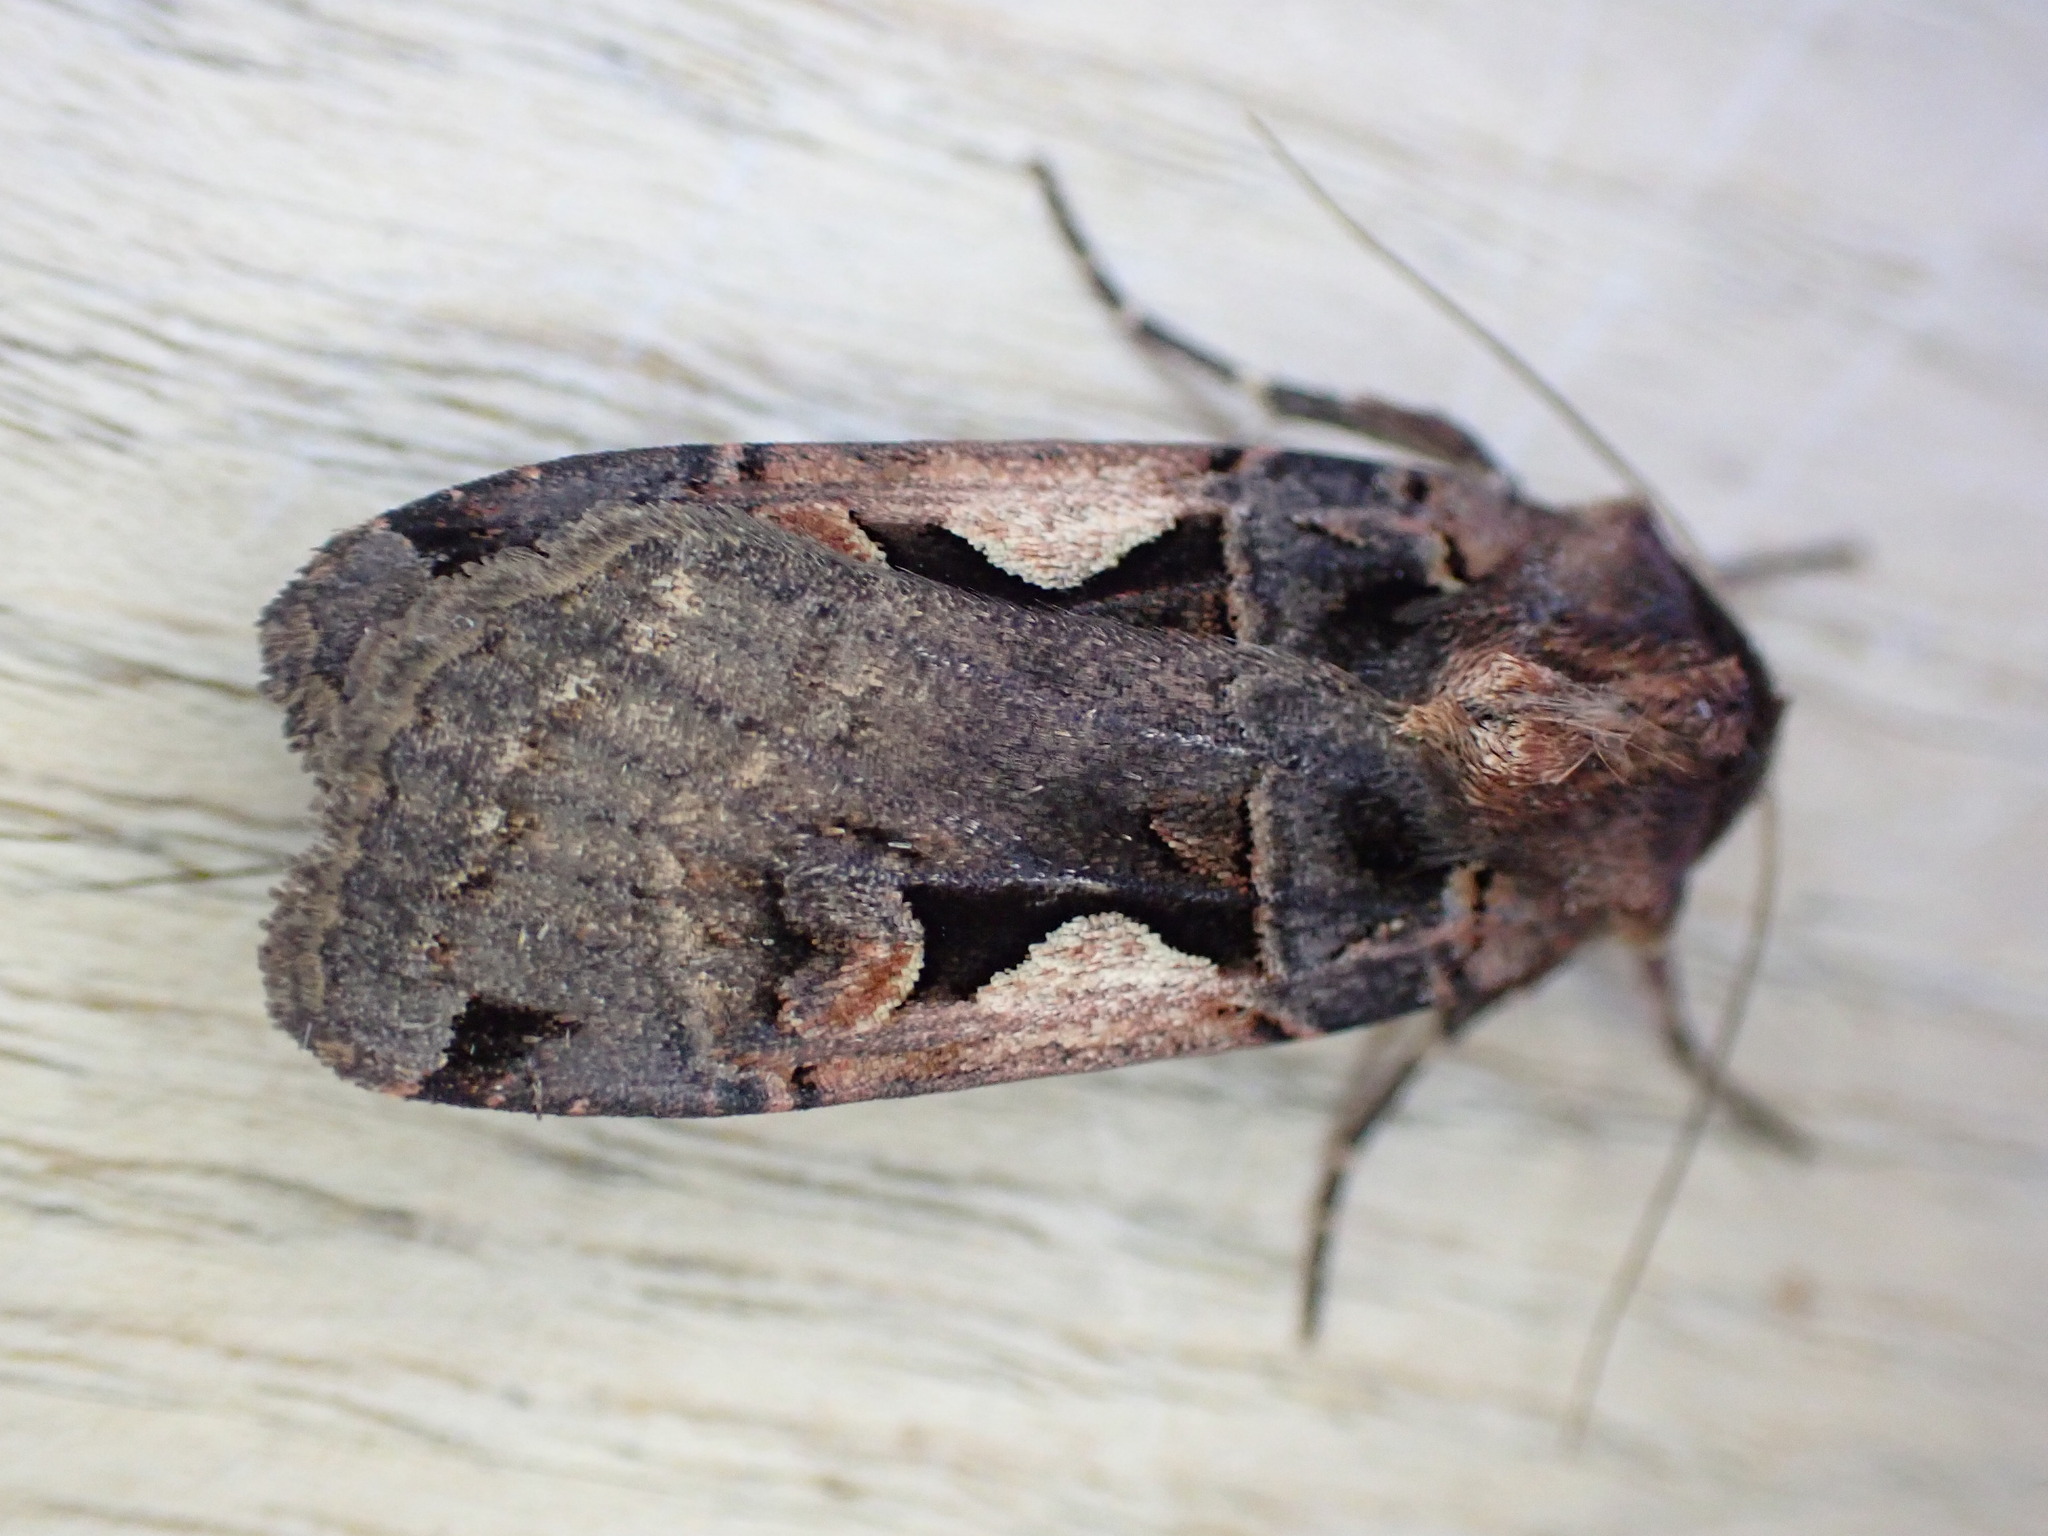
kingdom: Animalia
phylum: Arthropoda
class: Insecta
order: Lepidoptera
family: Noctuidae
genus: Xestia
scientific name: Xestia c-nigrum
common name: Setaceous hebrew character
